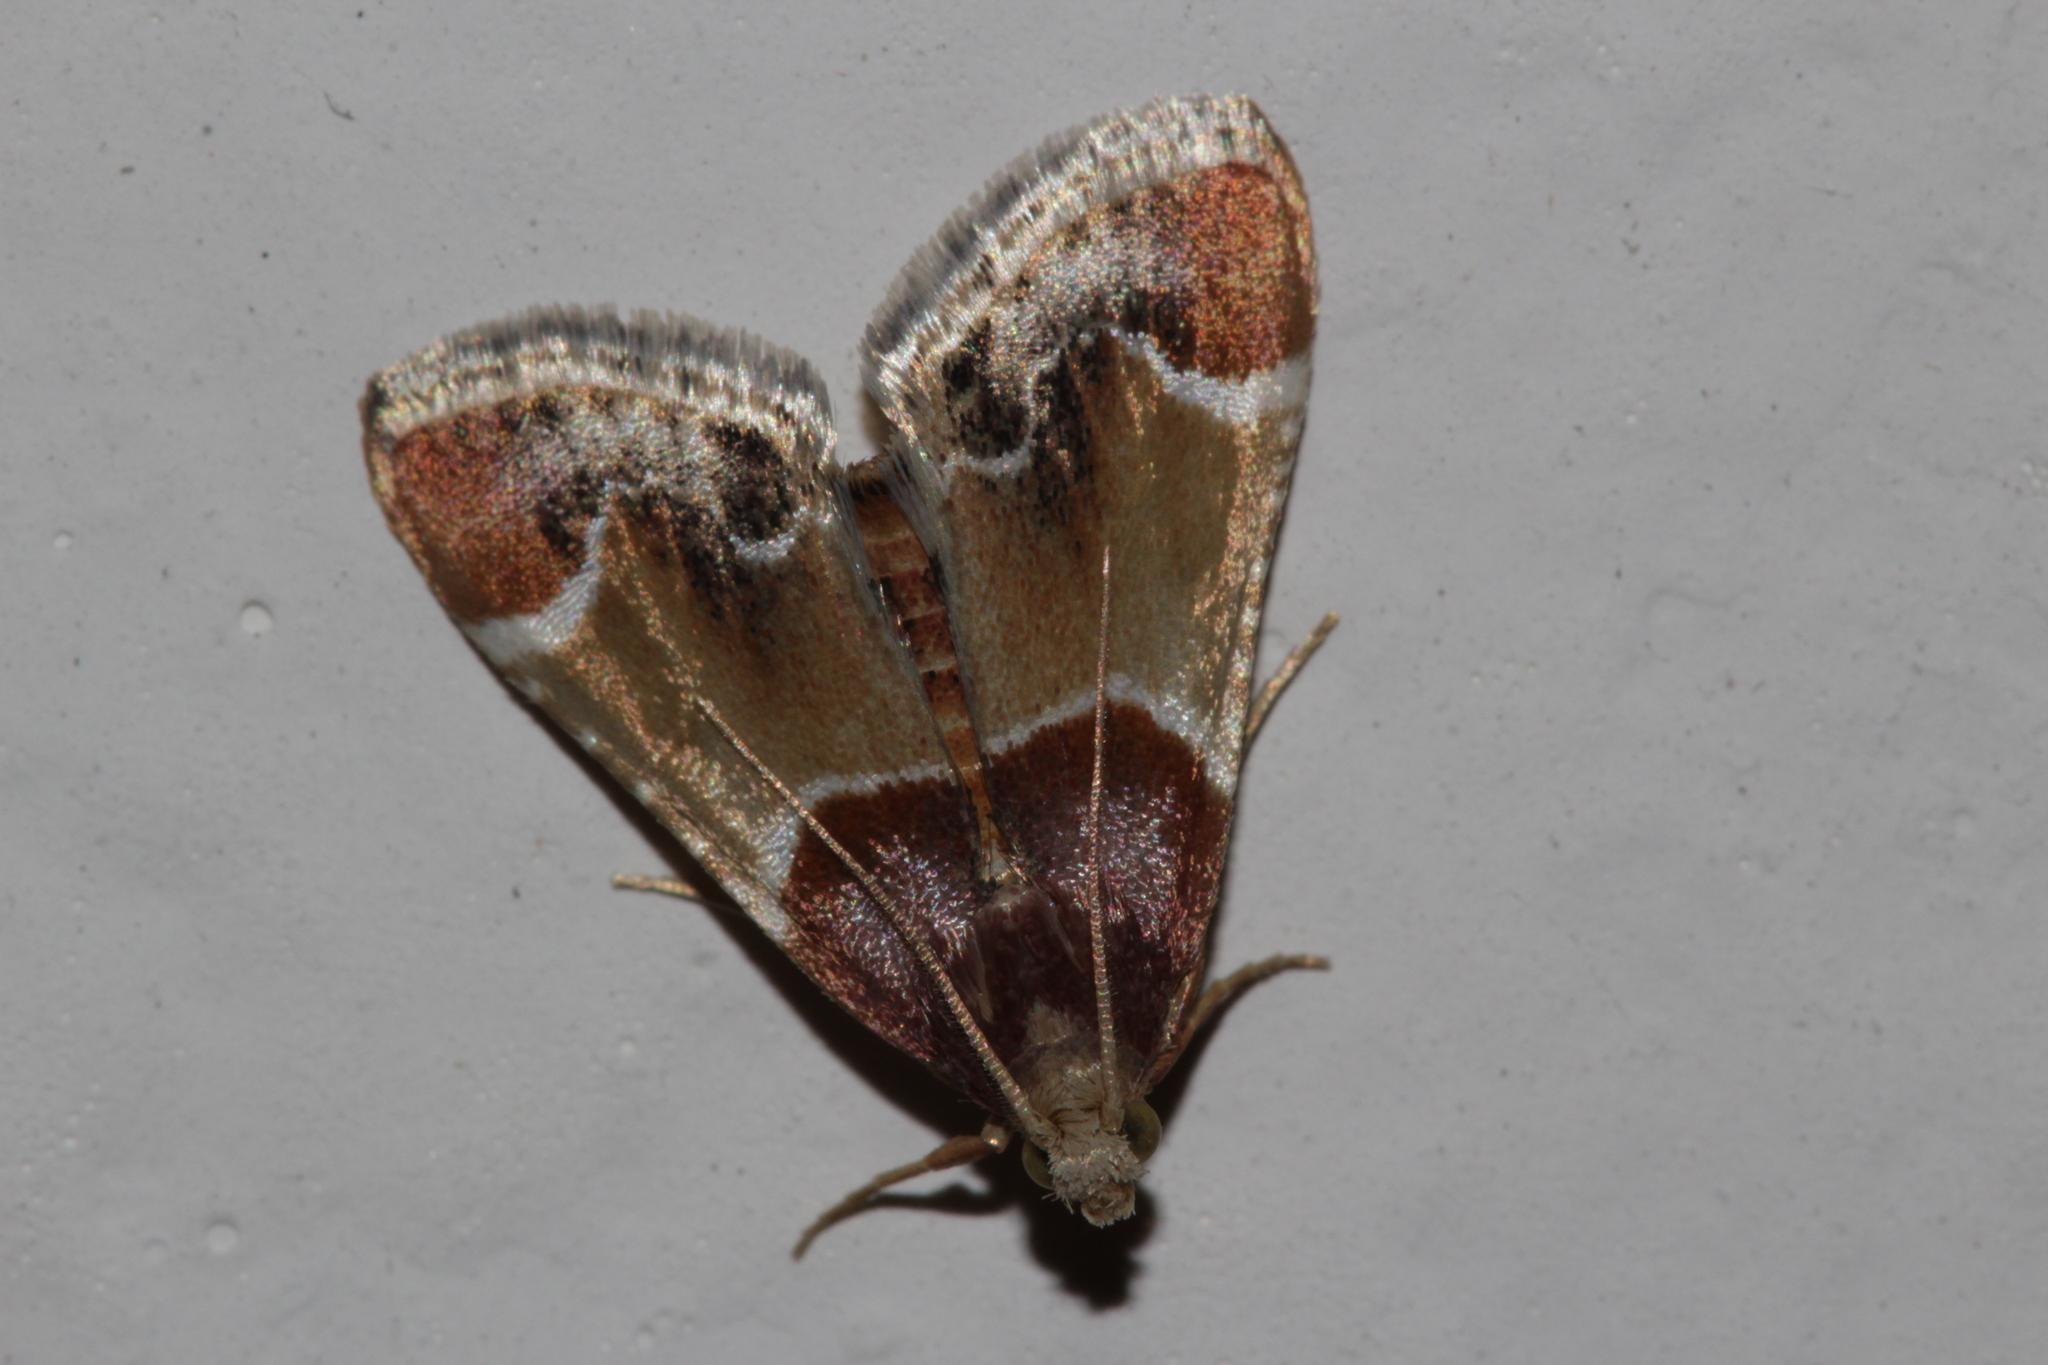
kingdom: Animalia
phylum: Arthropoda
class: Insecta
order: Lepidoptera
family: Pyralidae
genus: Pyralis
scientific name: Pyralis farinalis
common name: Meal moth
